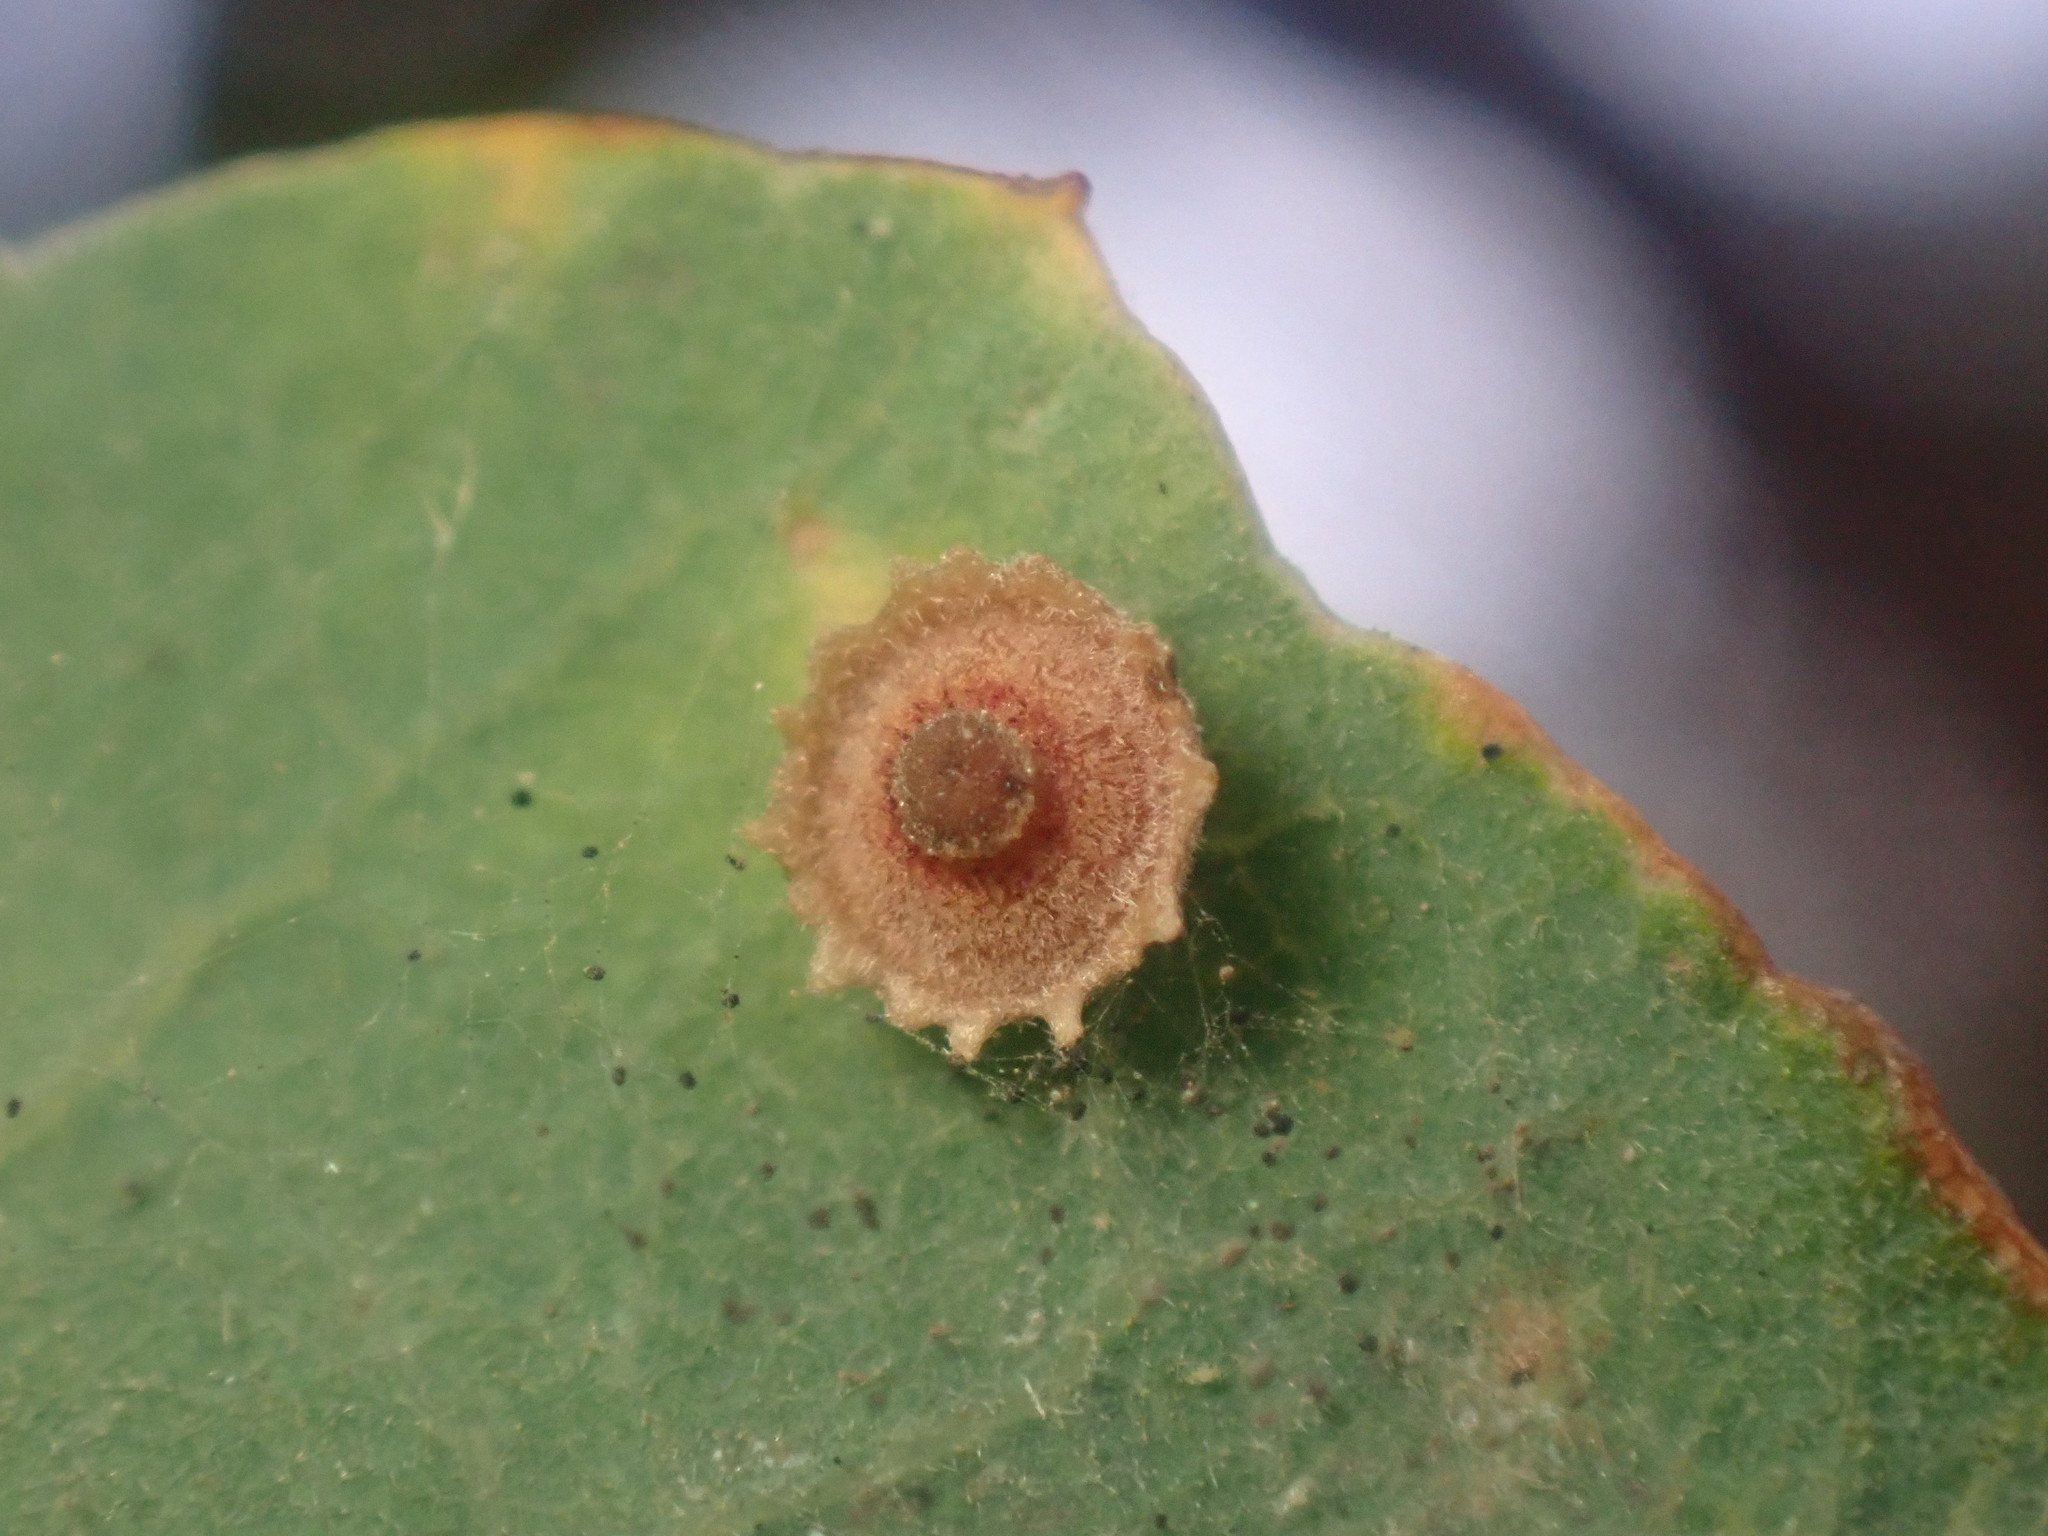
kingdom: Animalia
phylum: Arthropoda
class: Insecta
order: Hymenoptera
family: Cynipidae
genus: Andricus
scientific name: Andricus
